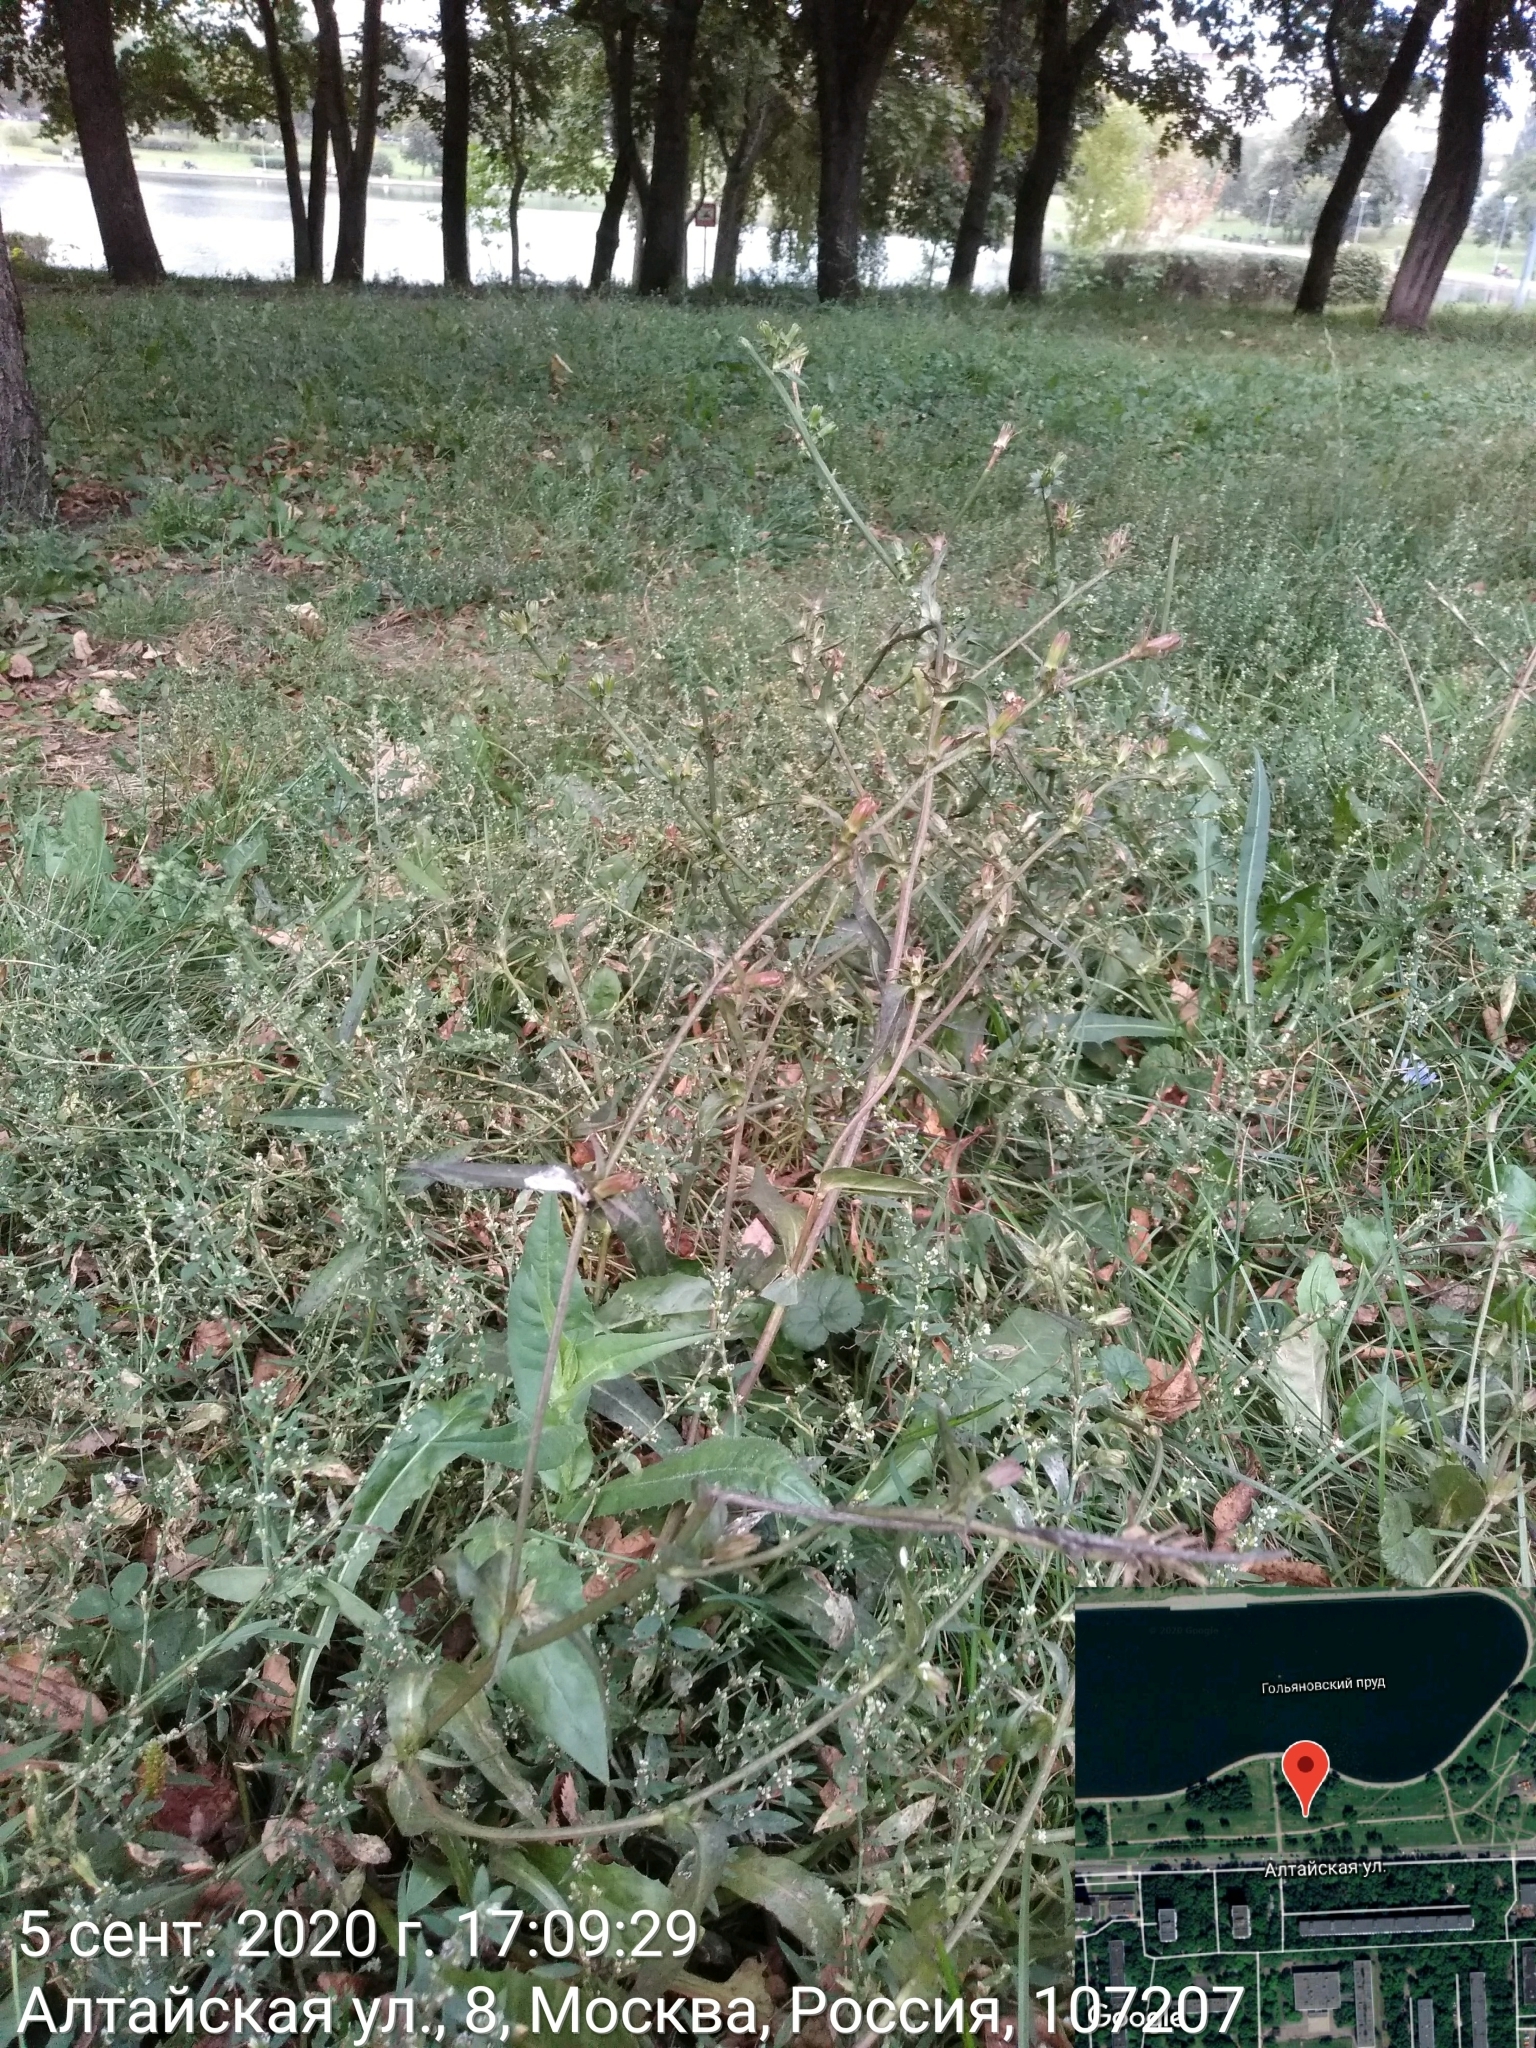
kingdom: Plantae
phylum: Tracheophyta
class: Magnoliopsida
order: Asterales
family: Asteraceae
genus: Cichorium
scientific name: Cichorium intybus
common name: Chicory
